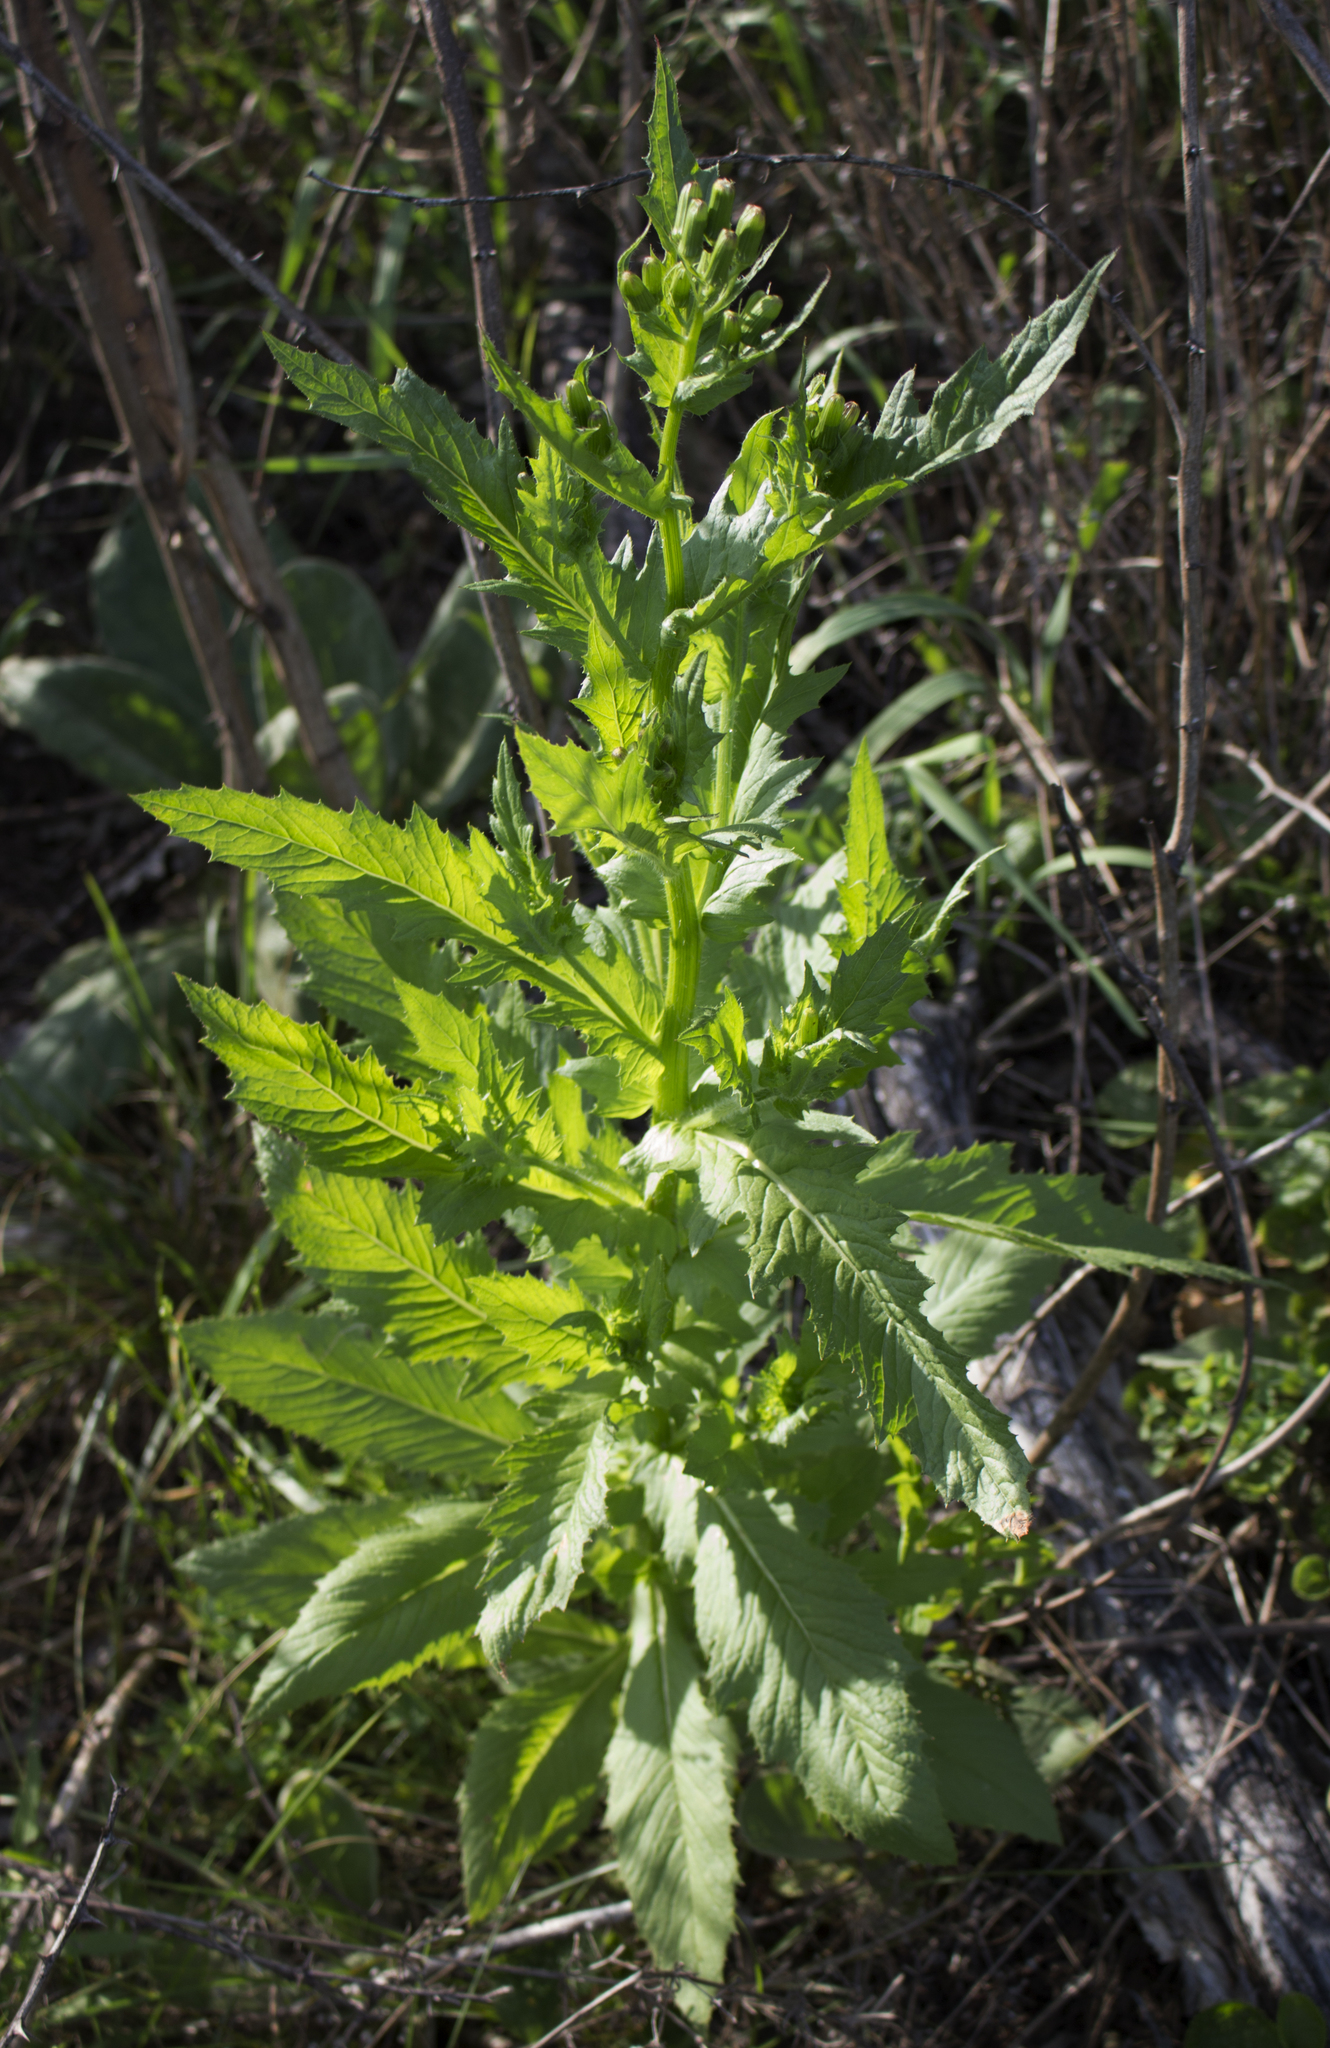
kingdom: Plantae
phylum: Tracheophyta
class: Magnoliopsida
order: Asterales
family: Asteraceae
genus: Erechtites
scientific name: Erechtites hieraciifolius
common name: American burnweed
